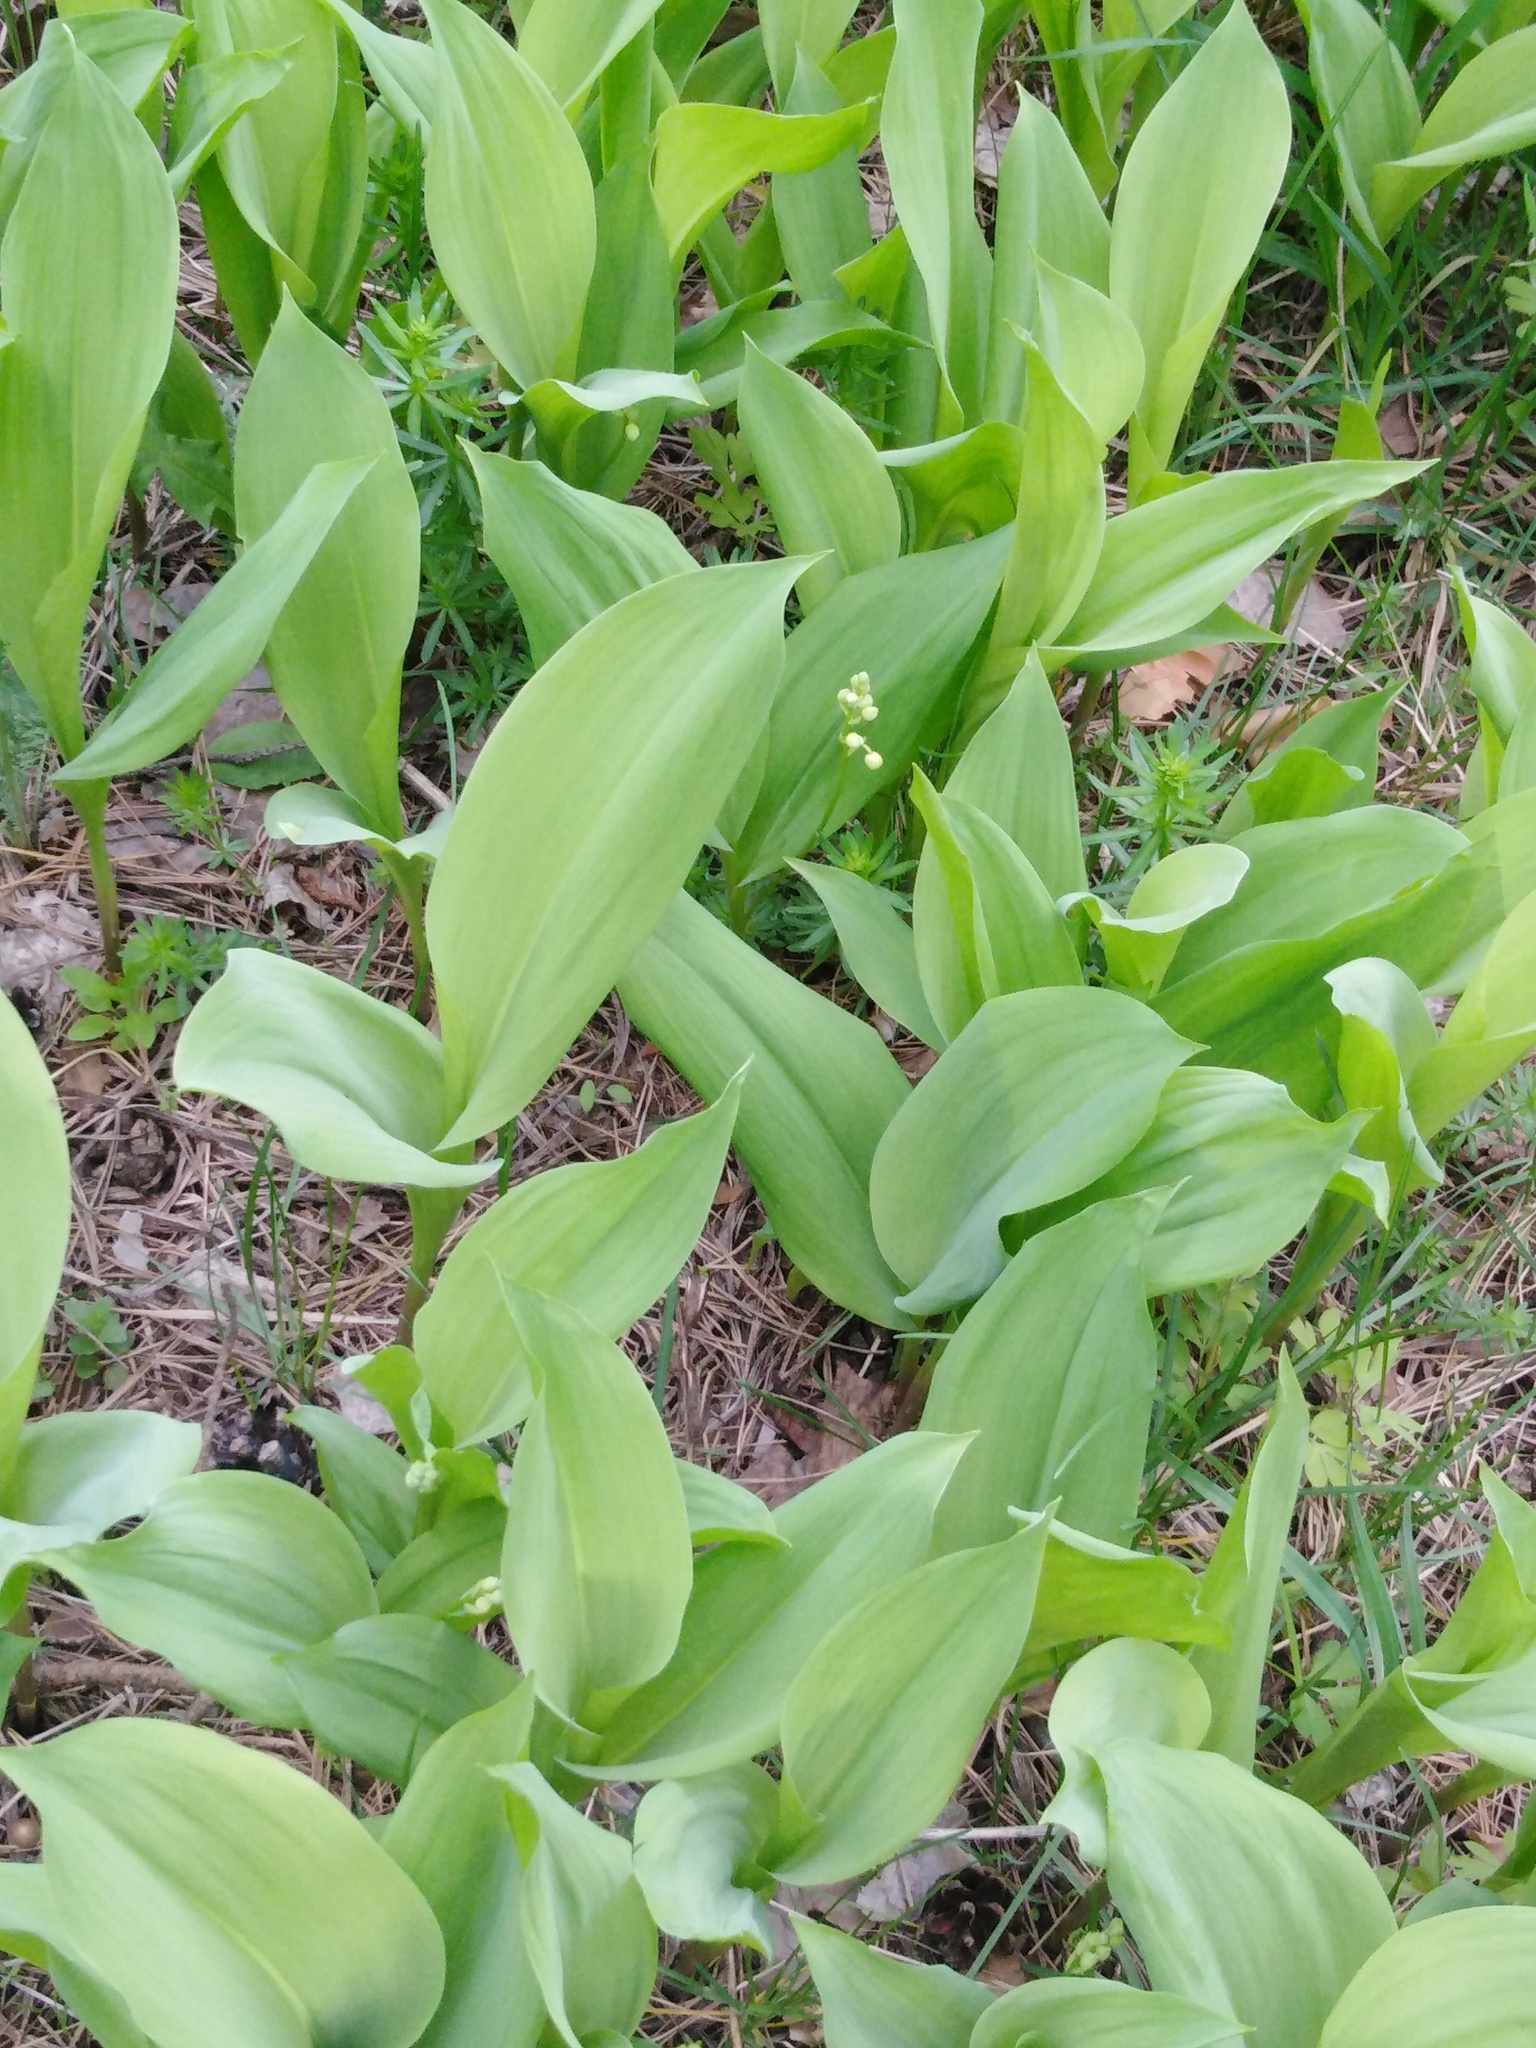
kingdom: Plantae
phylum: Tracheophyta
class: Liliopsida
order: Asparagales
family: Asparagaceae
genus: Convallaria
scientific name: Convallaria majalis
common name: Lily-of-the-valley
